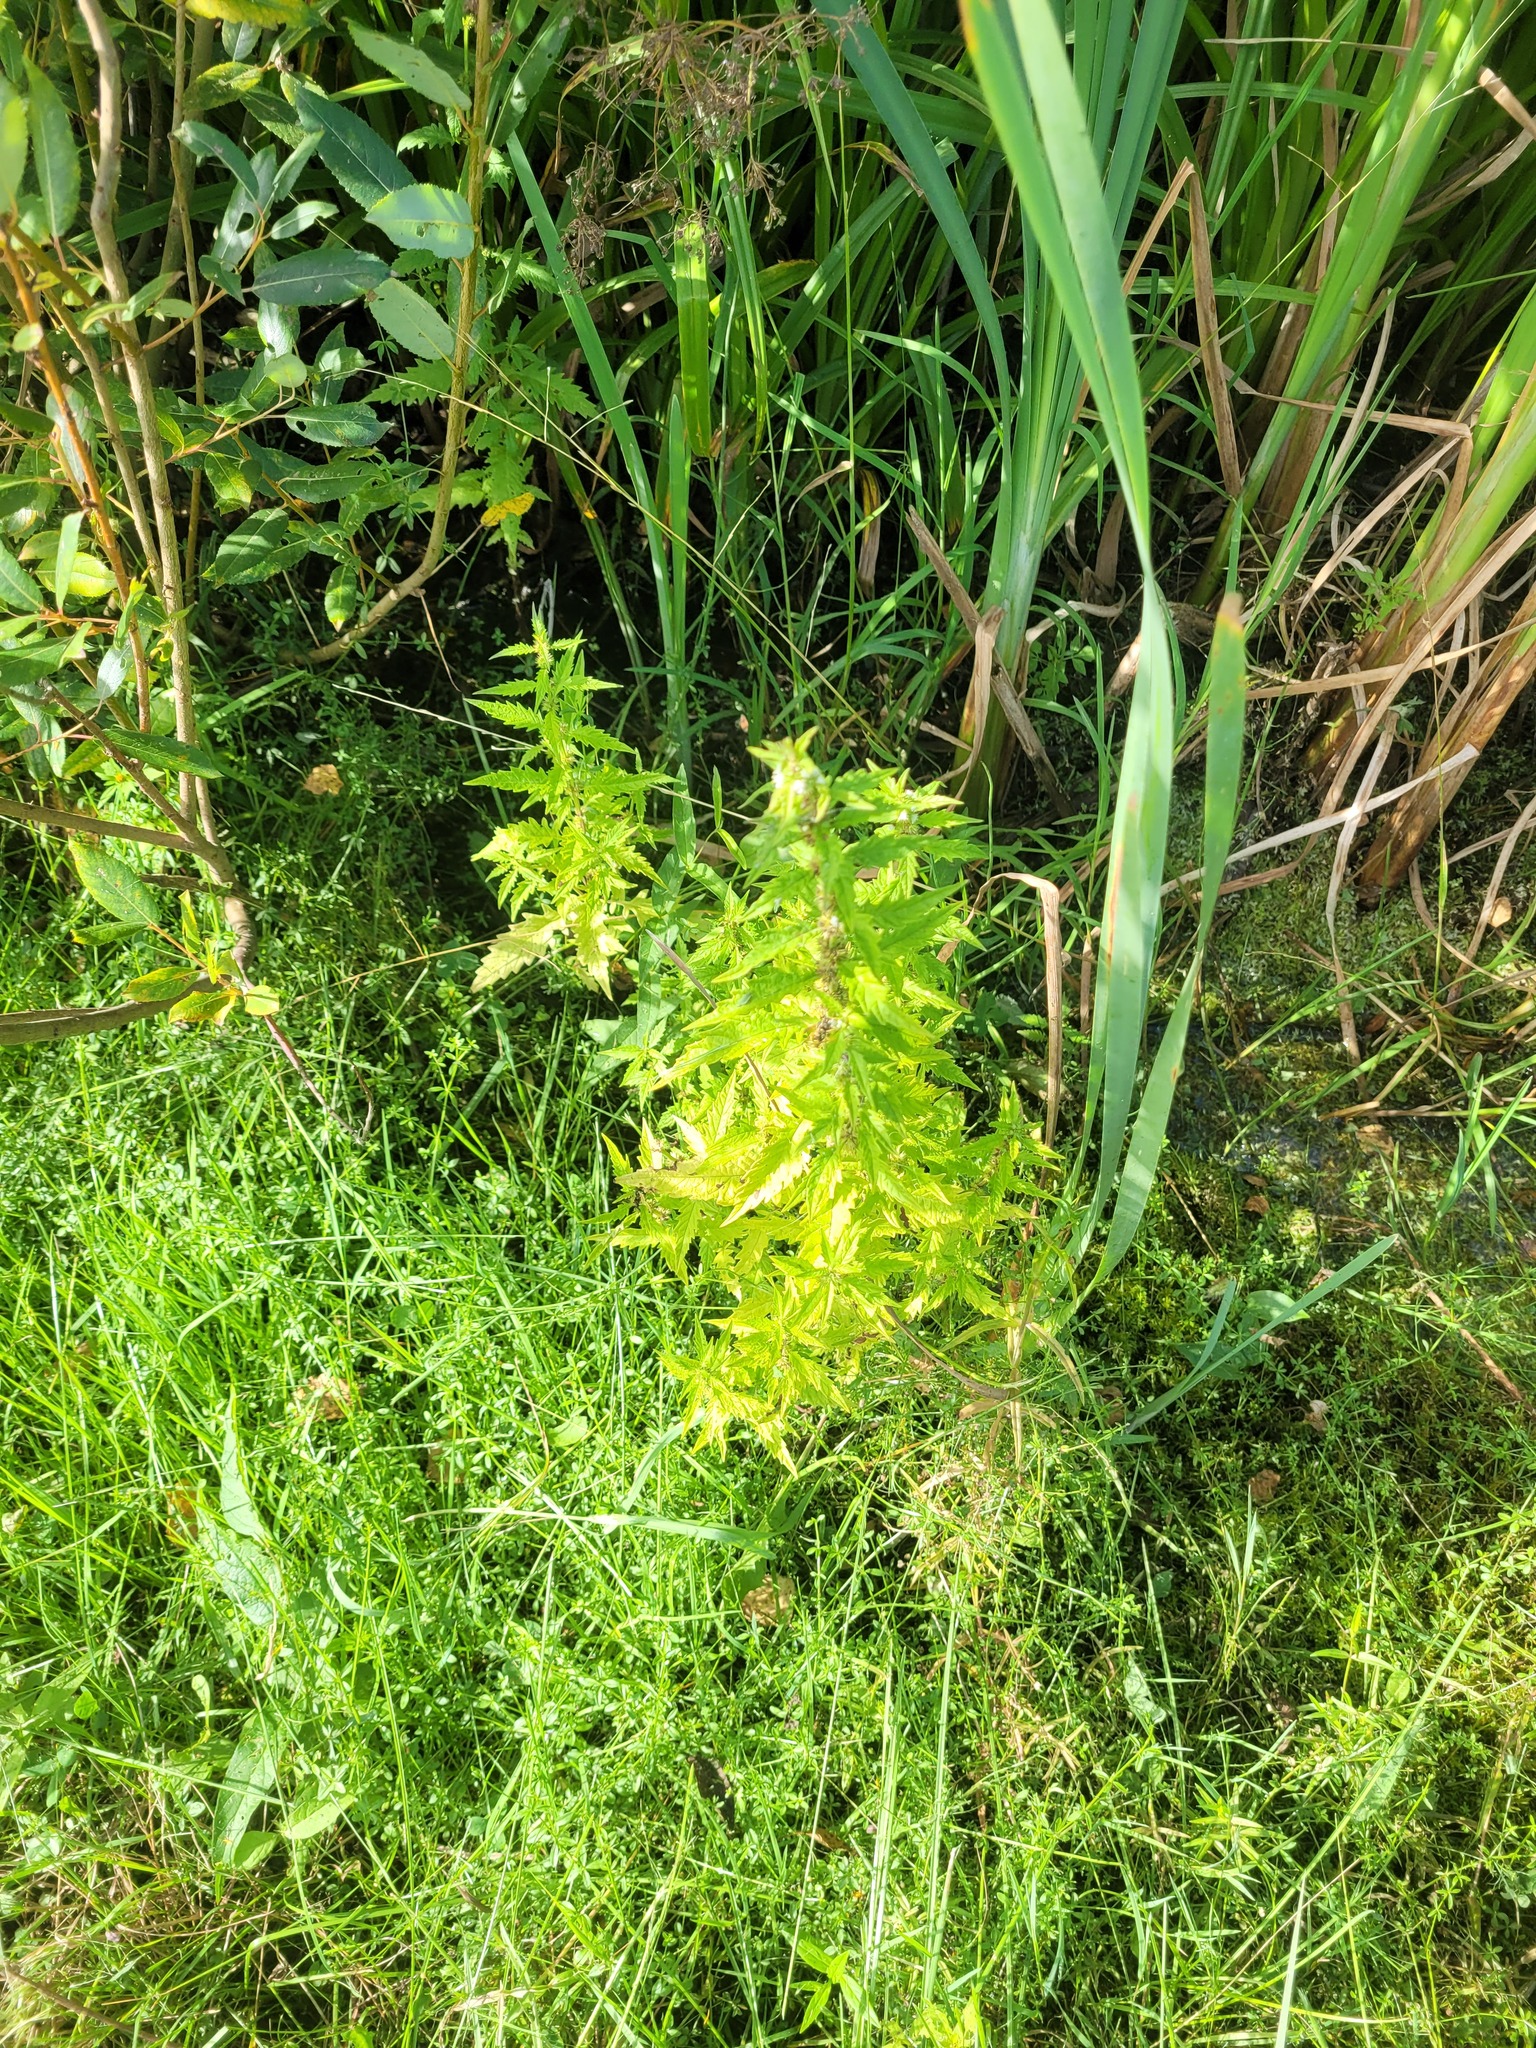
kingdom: Plantae
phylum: Tracheophyta
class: Magnoliopsida
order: Lamiales
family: Lamiaceae
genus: Lycopus
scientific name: Lycopus europaeus
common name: European bugleweed
